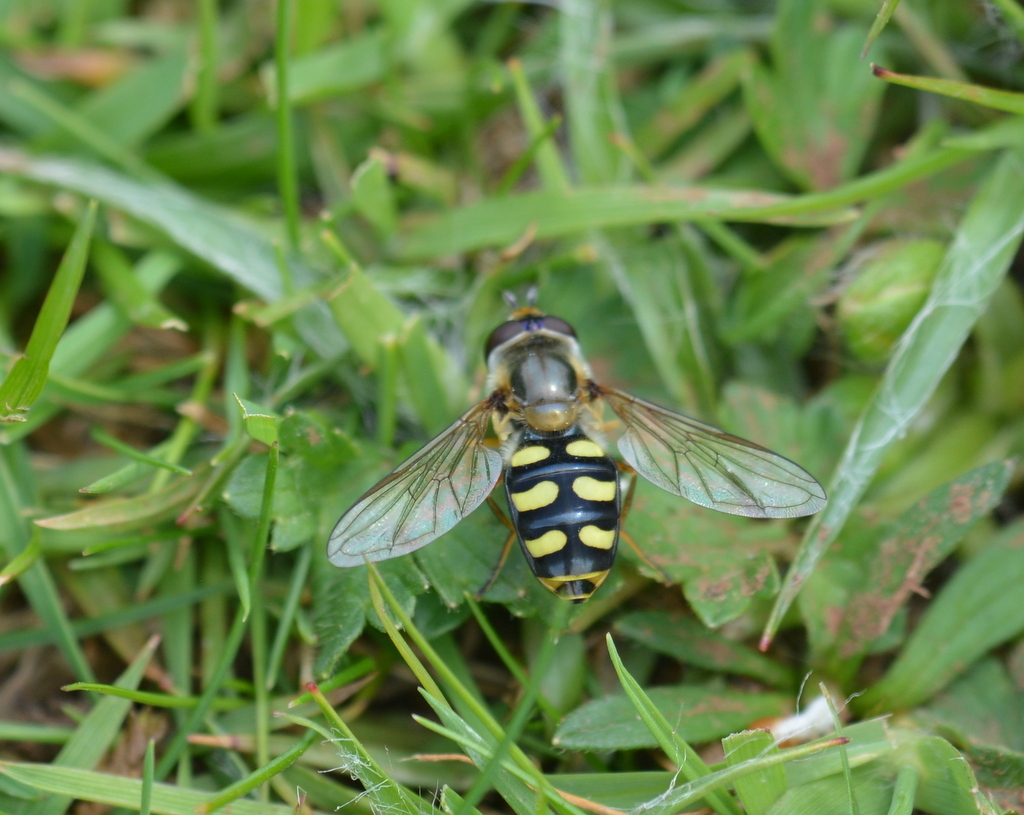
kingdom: Animalia
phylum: Arthropoda
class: Insecta
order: Diptera
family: Syrphidae
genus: Eupeodes
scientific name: Eupeodes
